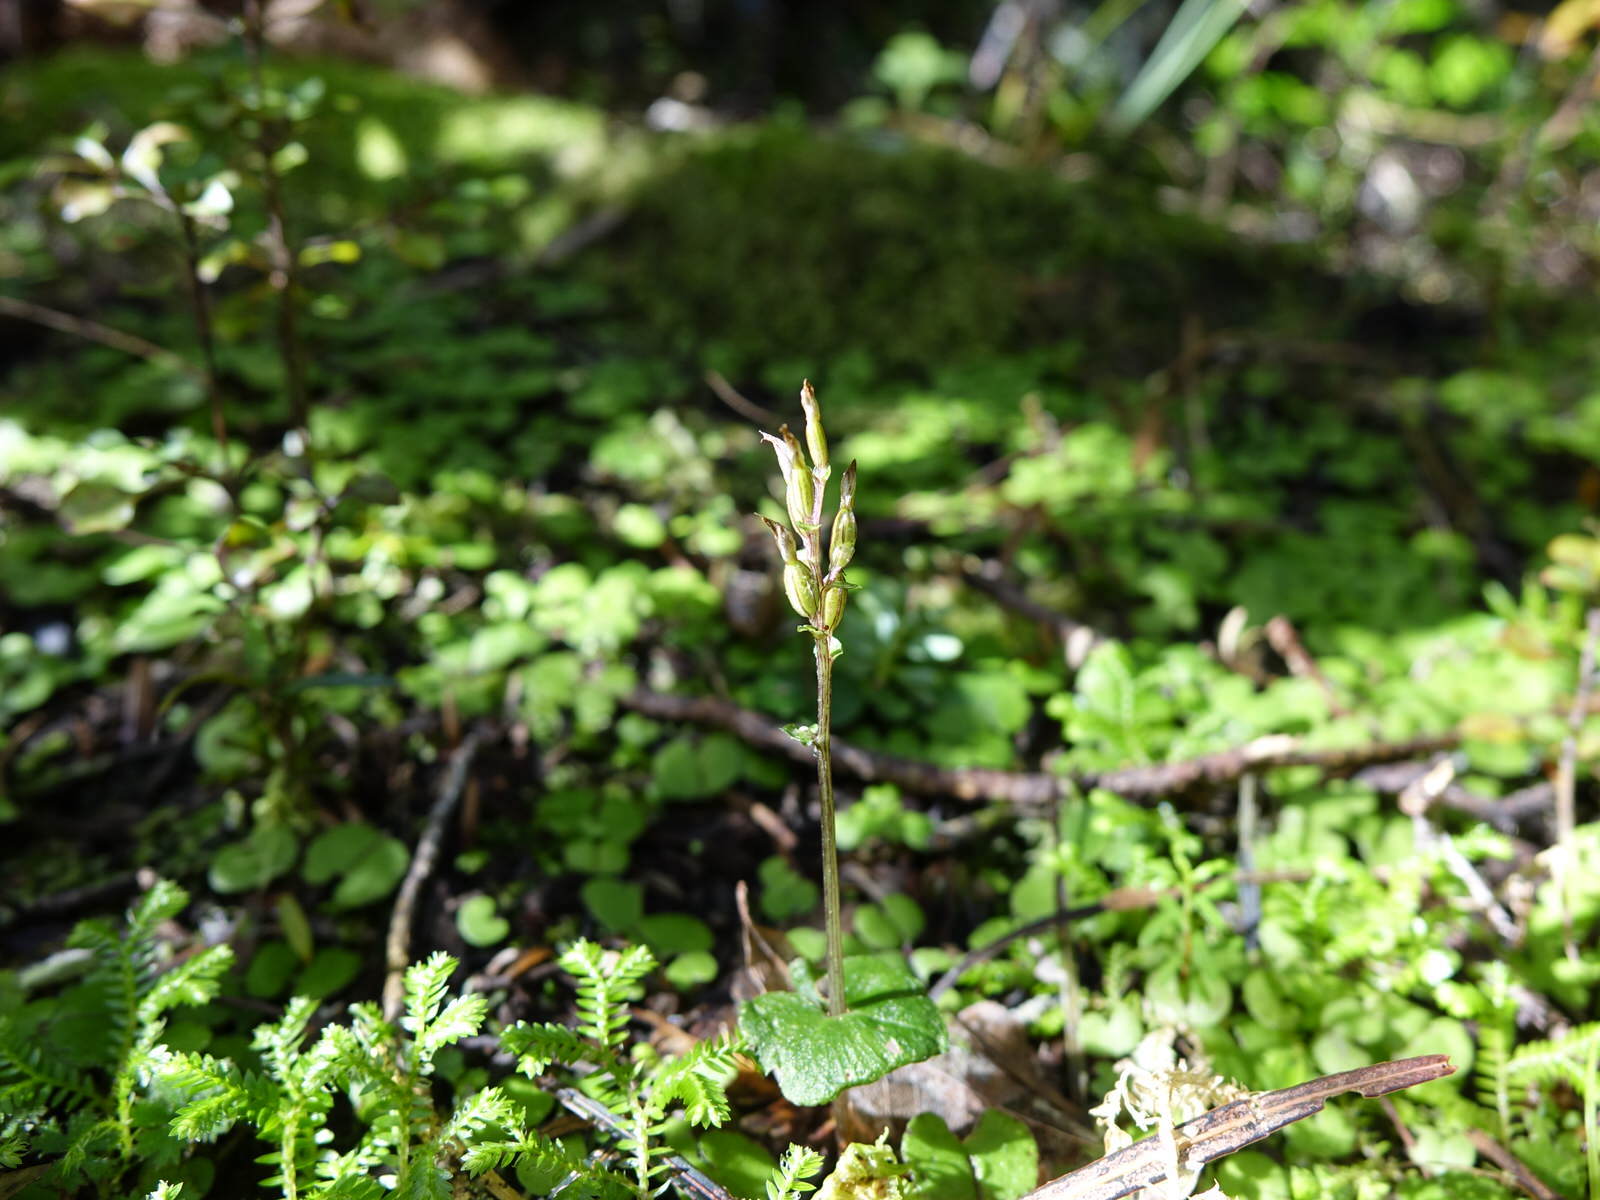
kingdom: Plantae
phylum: Tracheophyta
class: Liliopsida
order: Asparagales
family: Orchidaceae
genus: Acianthus
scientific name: Acianthus sinclairii
